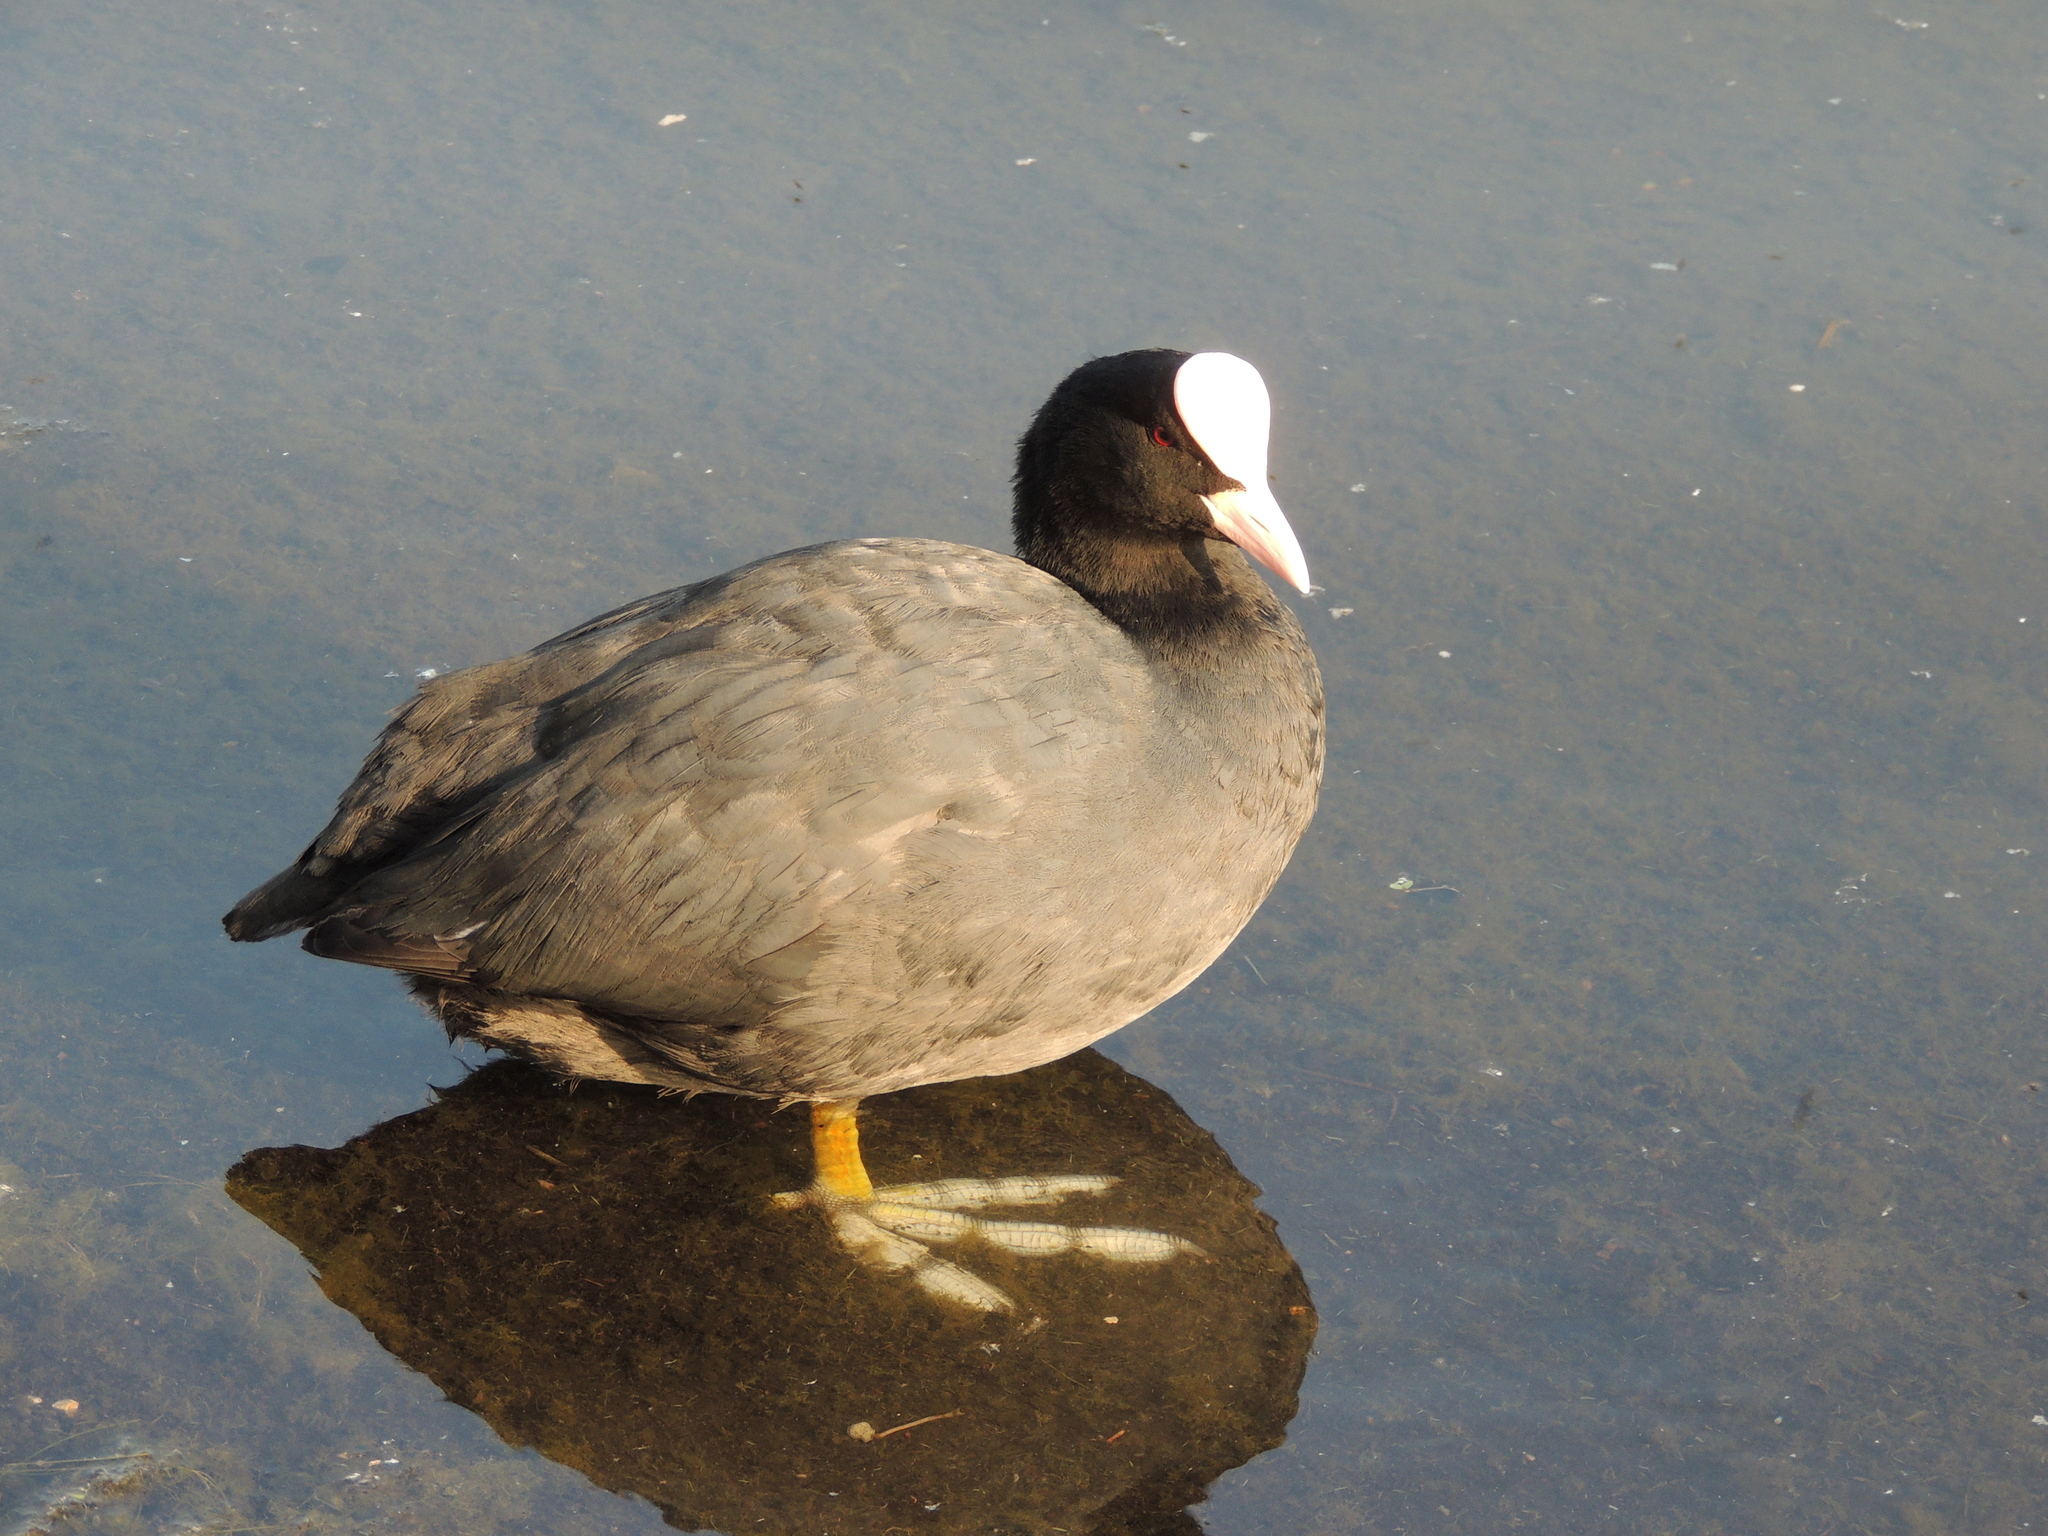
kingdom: Animalia
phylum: Chordata
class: Aves
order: Gruiformes
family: Rallidae
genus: Fulica
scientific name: Fulica atra
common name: Eurasian coot
